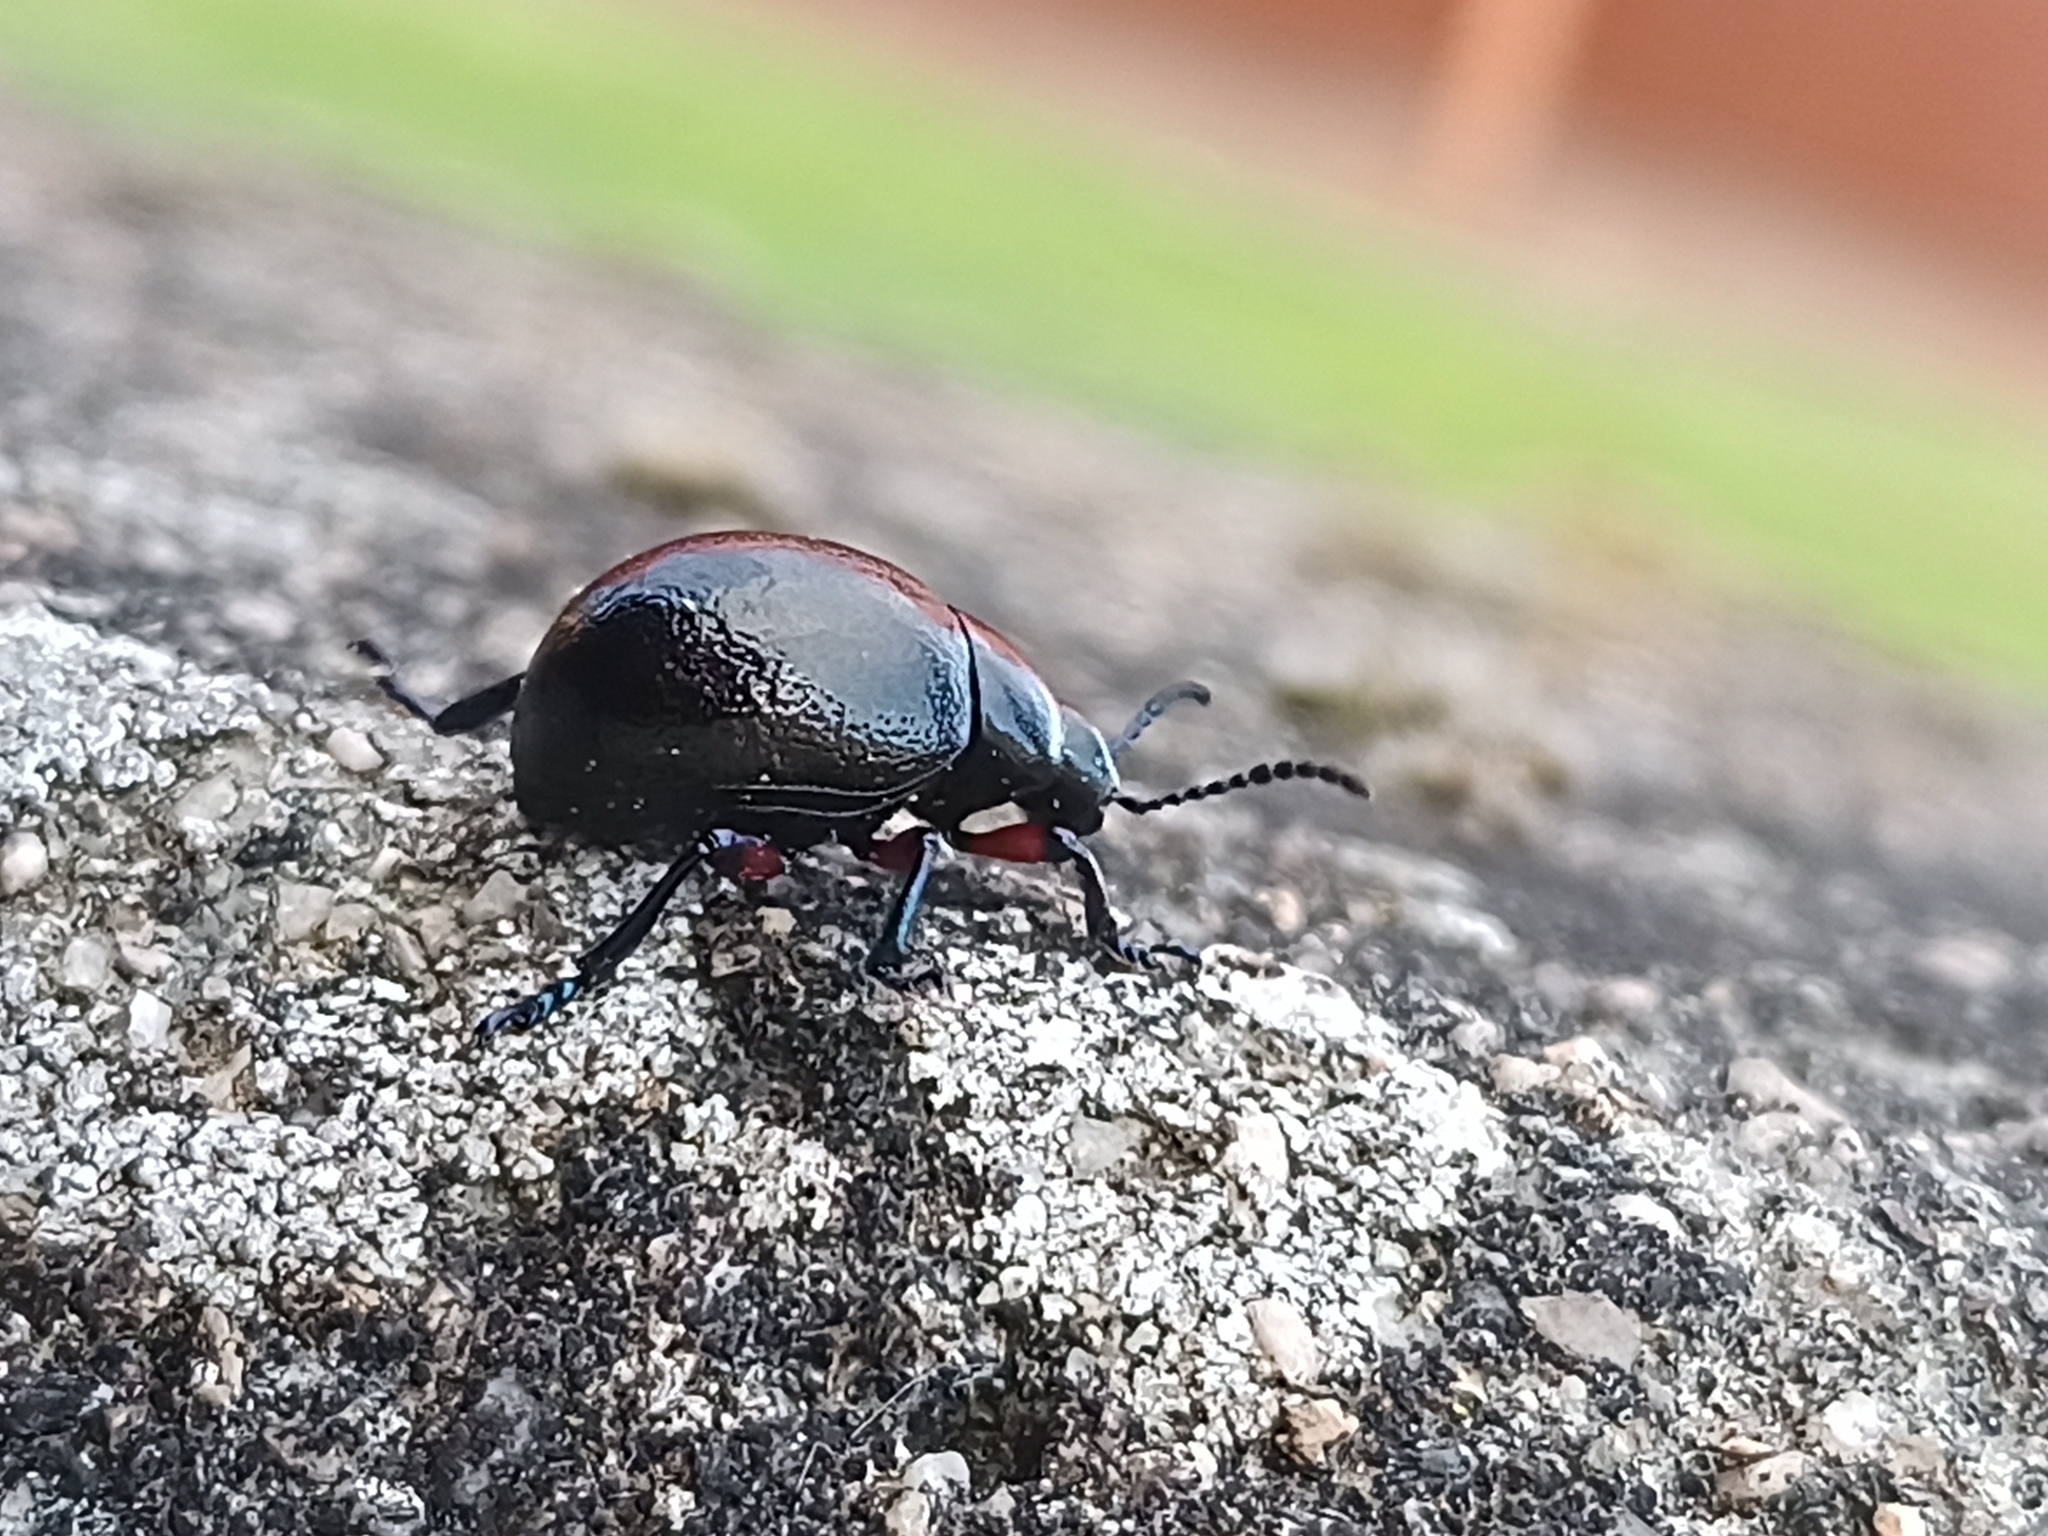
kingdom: Animalia
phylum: Arthropoda
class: Insecta
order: Coleoptera
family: Chrysomelidae
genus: Timarcha
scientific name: Timarcha gougeleti
